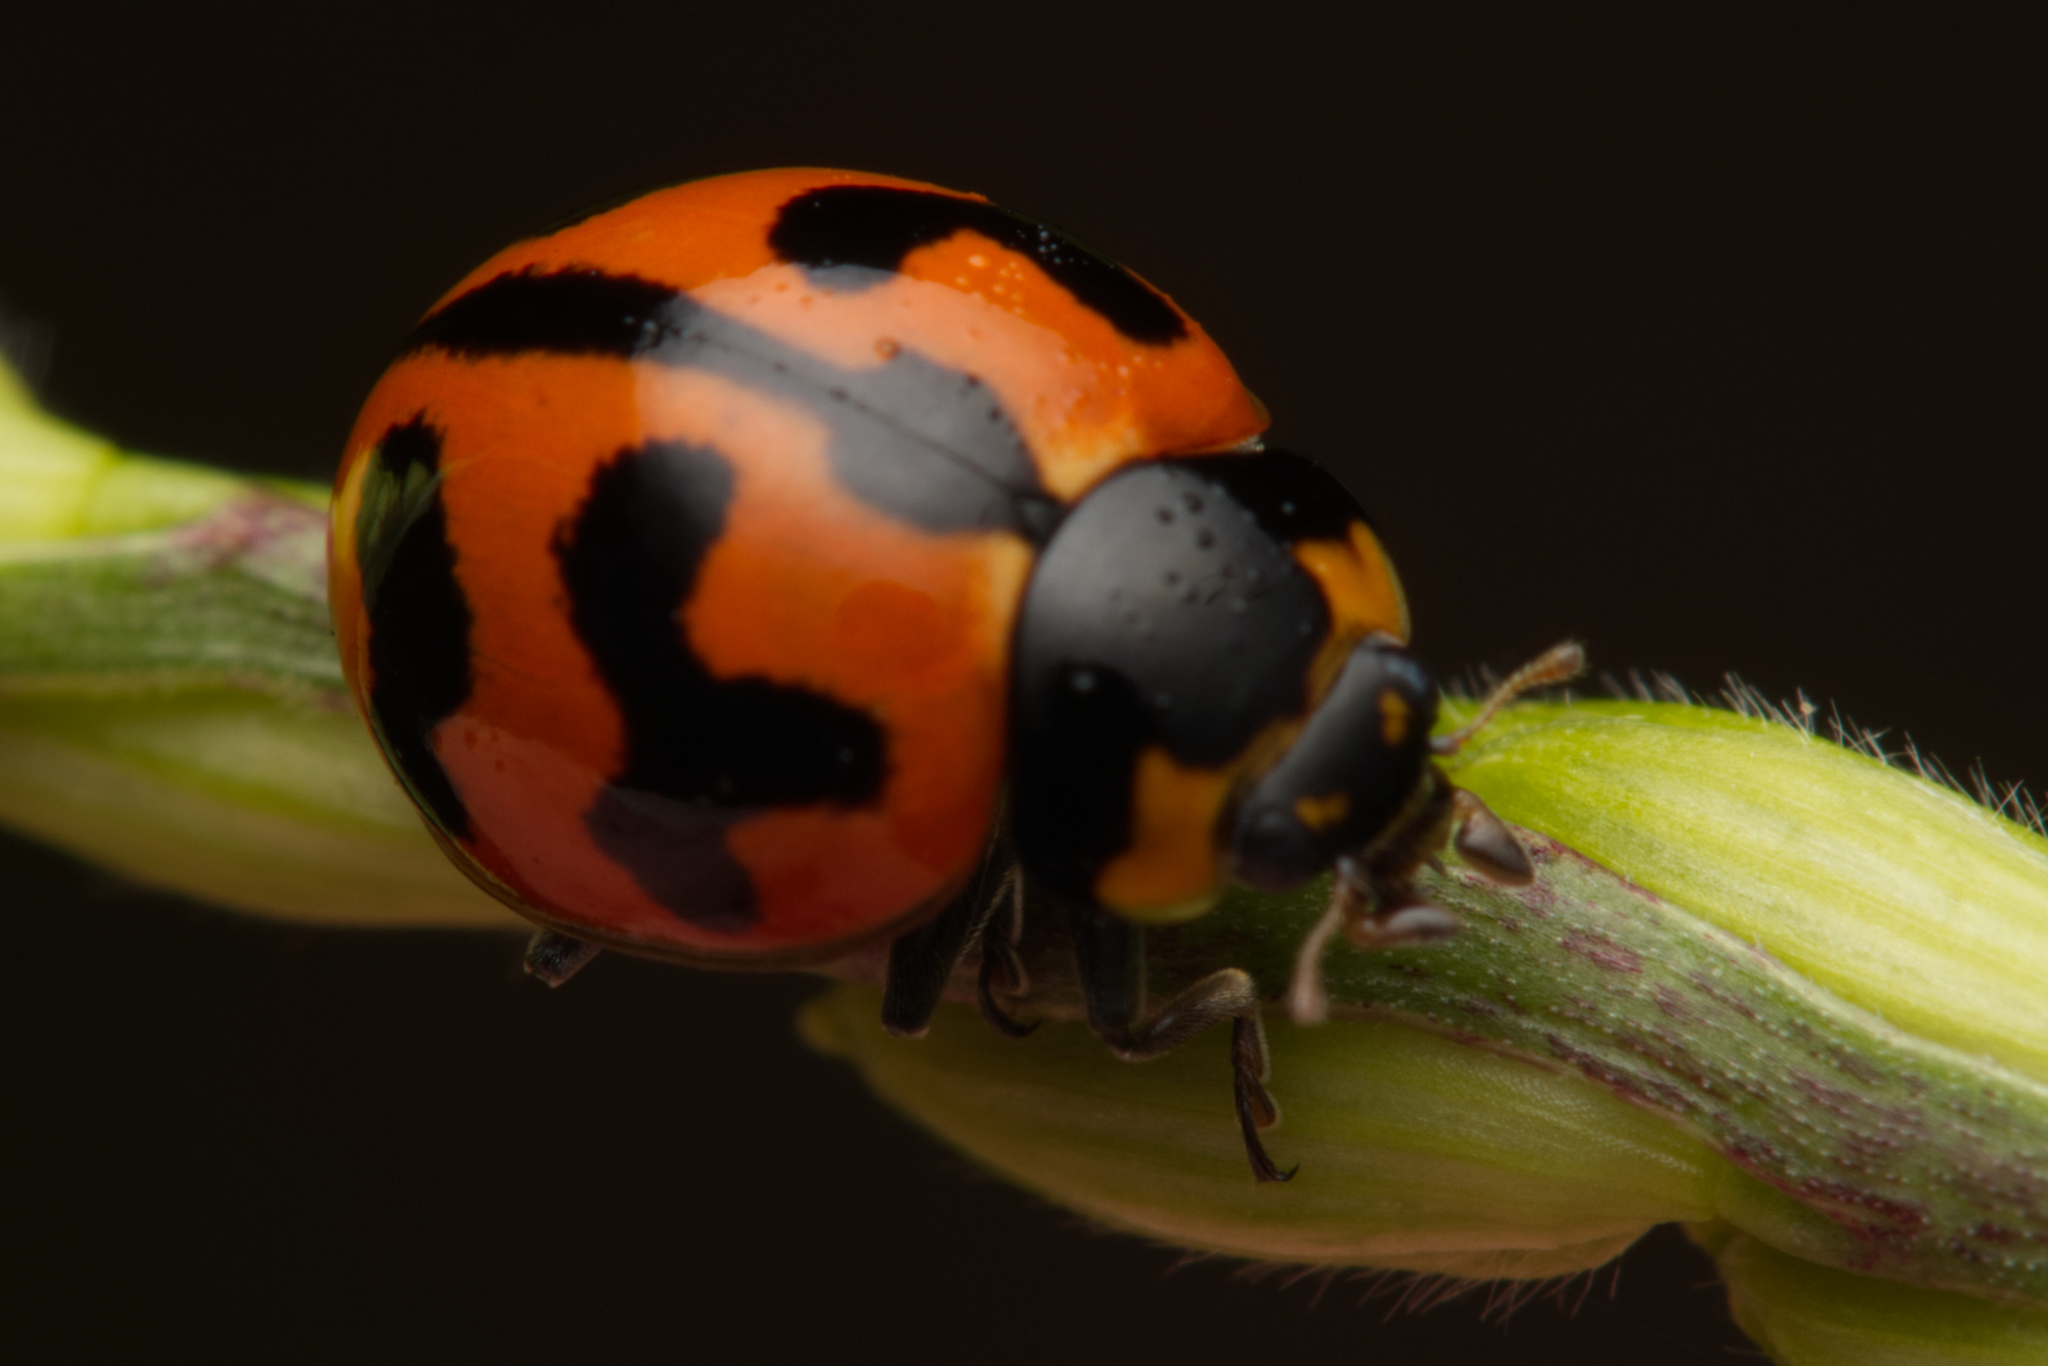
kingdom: Animalia
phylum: Arthropoda
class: Insecta
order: Coleoptera
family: Coccinellidae
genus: Coccinella
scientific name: Coccinella transversalis
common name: Transverse lady beetle
